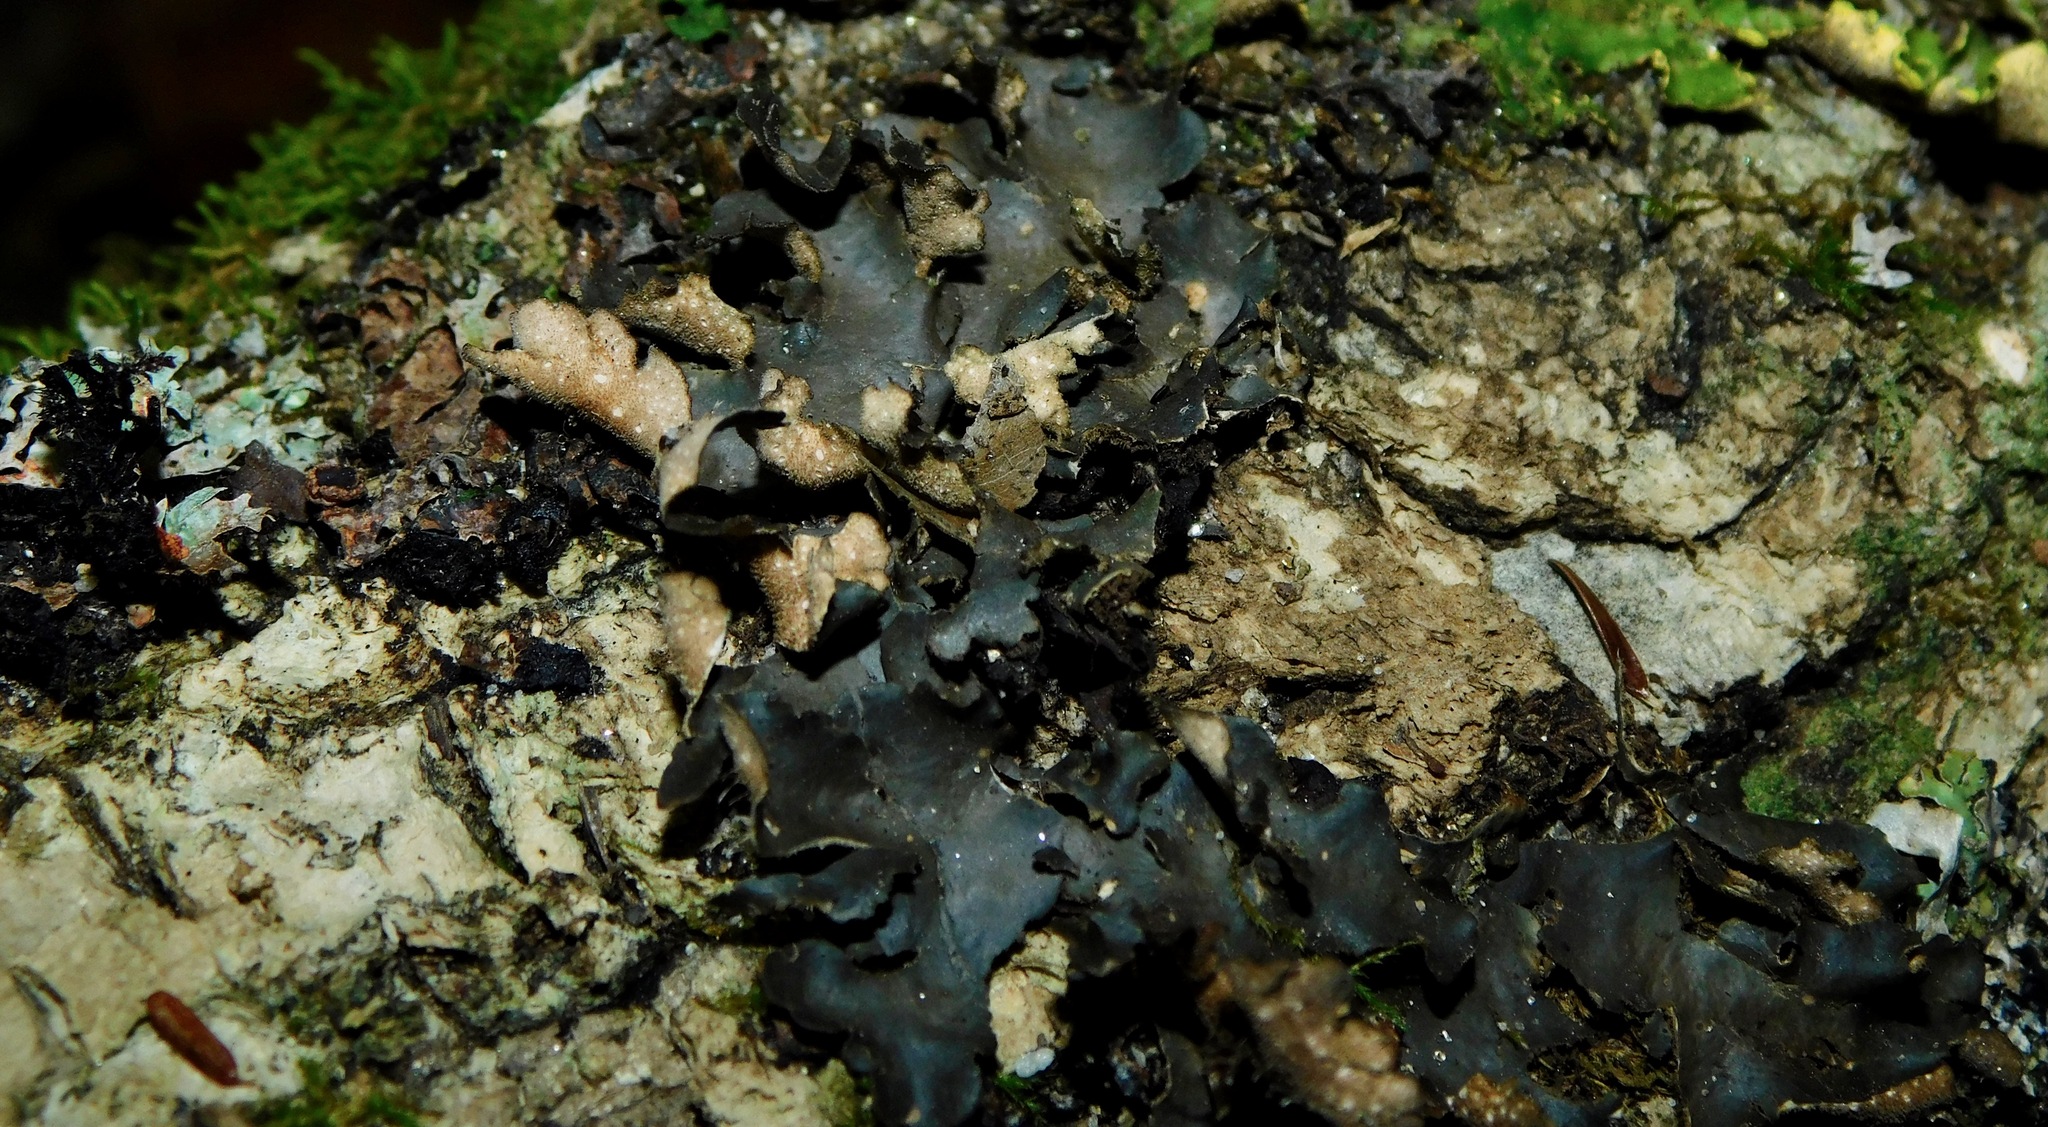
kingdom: Fungi
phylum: Ascomycota
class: Lecanoromycetes
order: Peltigerales
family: Lobariaceae
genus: Sticta
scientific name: Sticta beauvoisii
